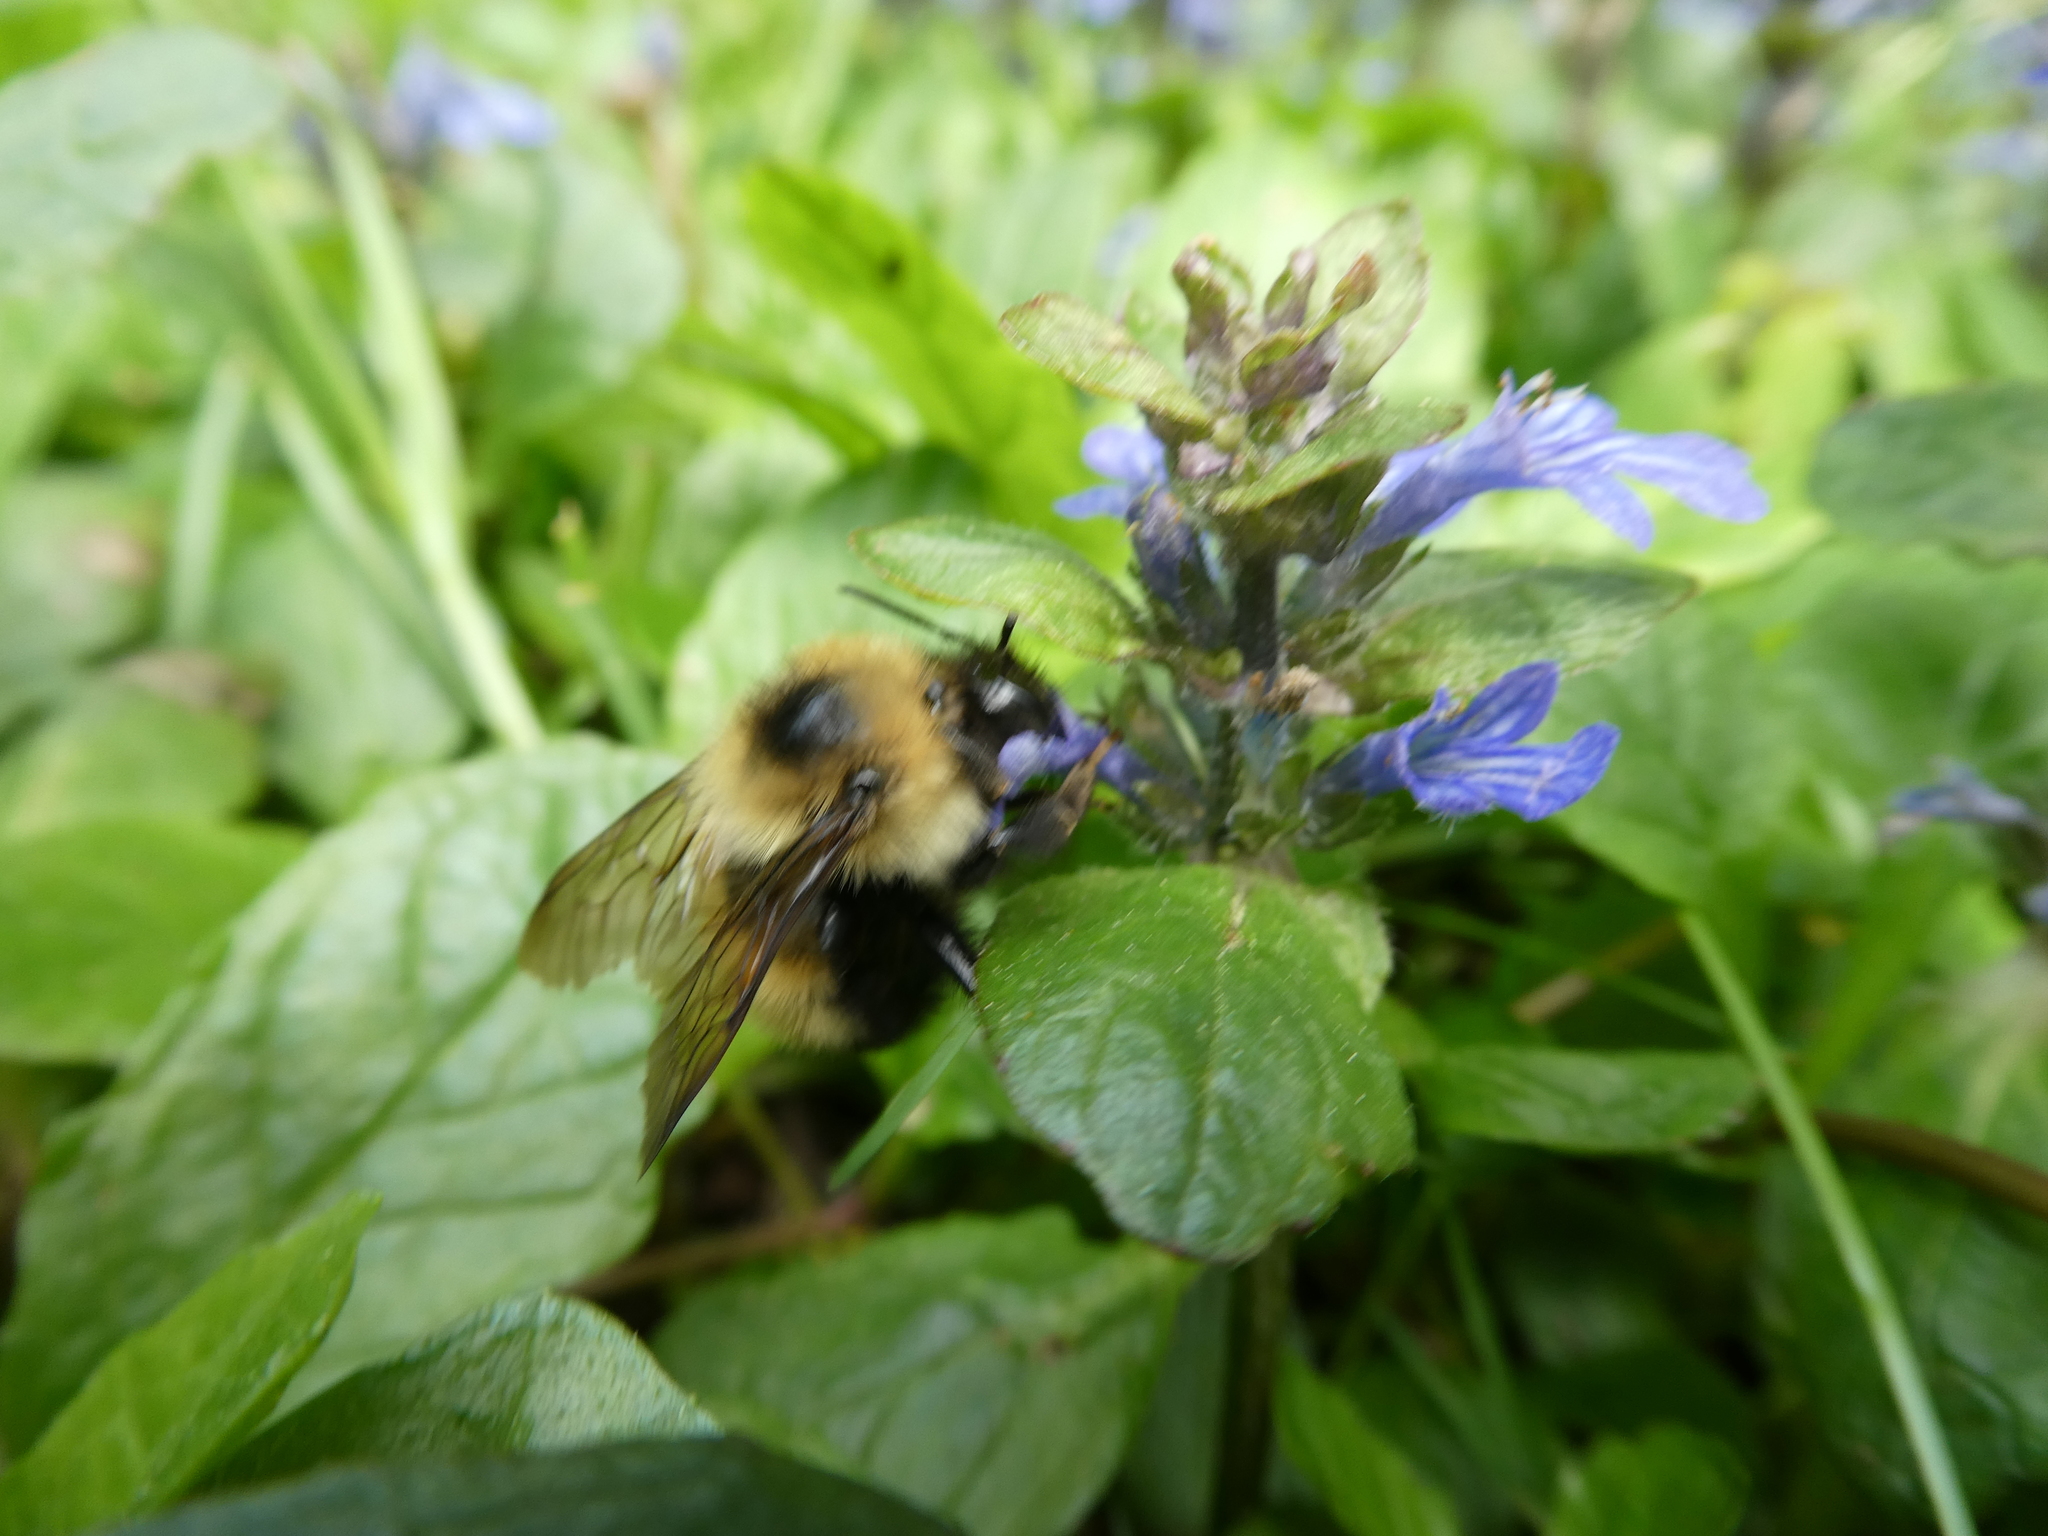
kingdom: Animalia
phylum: Arthropoda
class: Insecta
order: Hymenoptera
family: Apidae
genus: Pyrobombus
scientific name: Pyrobombus
